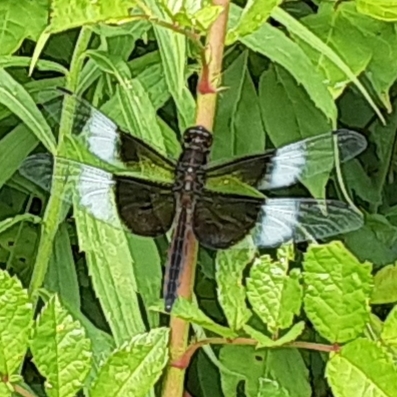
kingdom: Animalia
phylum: Arthropoda
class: Insecta
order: Odonata
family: Libellulidae
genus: Libellula
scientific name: Libellula luctuosa
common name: Widow skimmer
